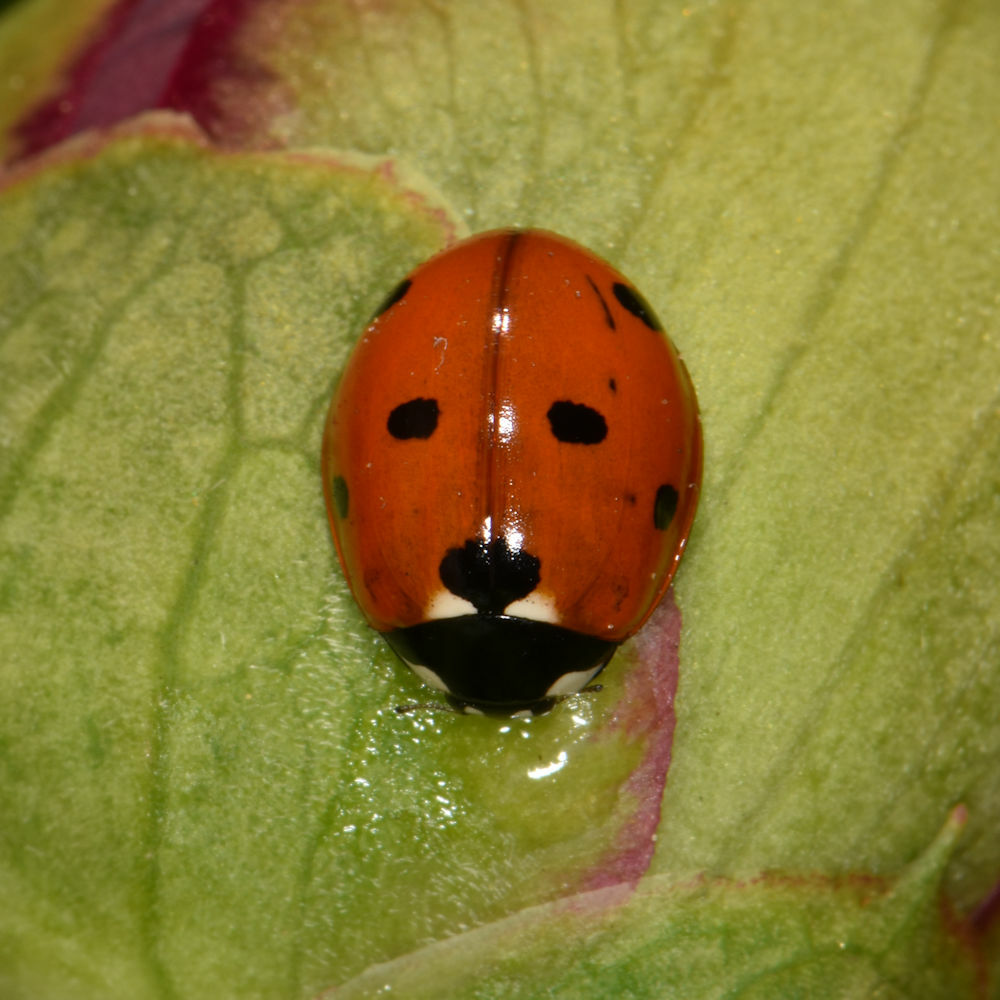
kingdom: Animalia
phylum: Arthropoda
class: Insecta
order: Coleoptera
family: Coccinellidae
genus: Coccinella
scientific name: Coccinella septempunctata
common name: Sevenspotted lady beetle
